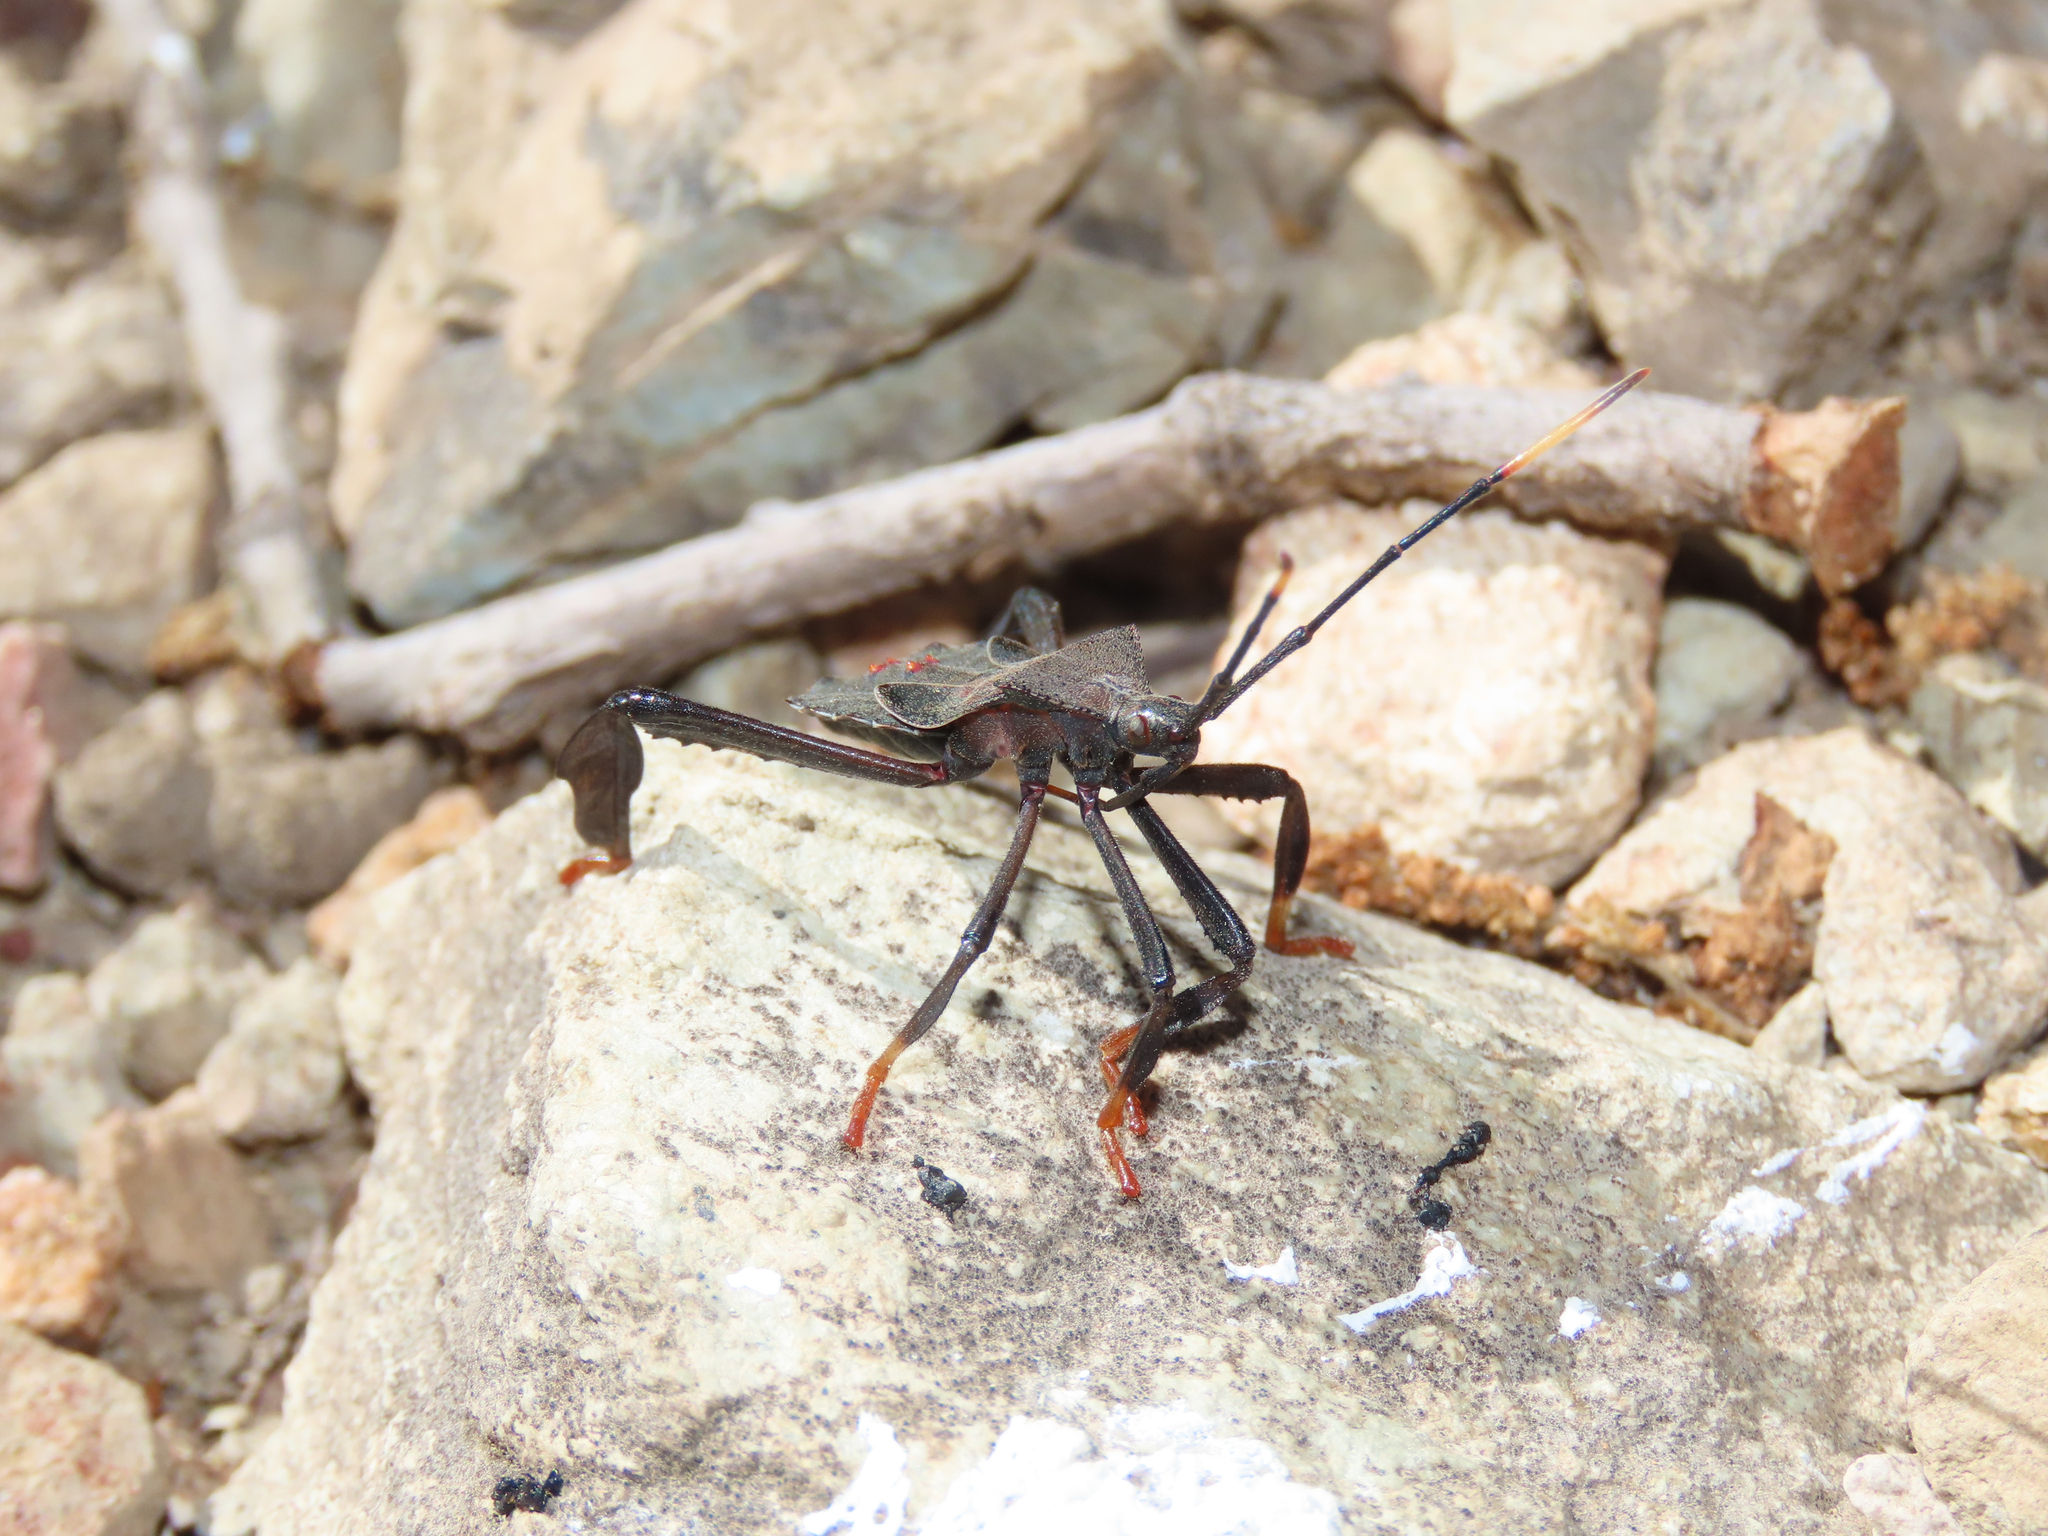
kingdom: Animalia
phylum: Arthropoda
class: Insecta
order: Hemiptera
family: Coreidae
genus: Acanthocephala
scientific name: Acanthocephala thomasi
